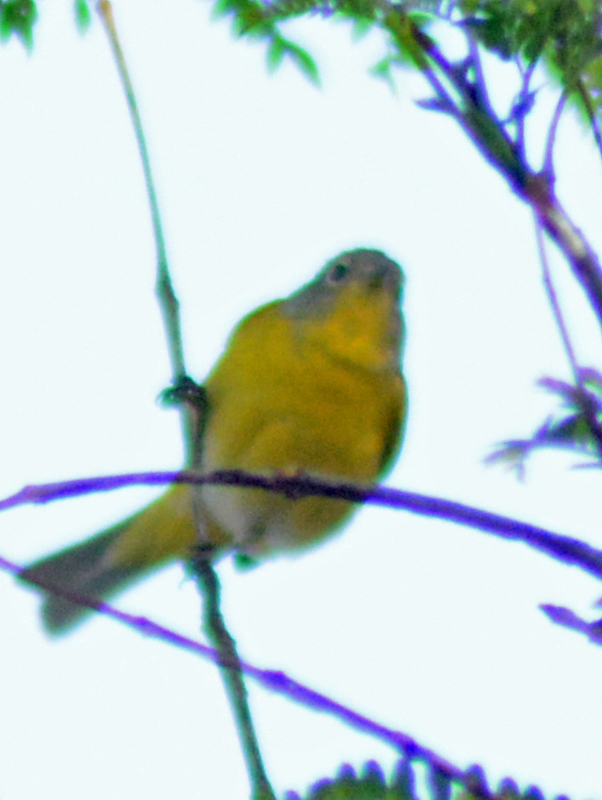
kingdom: Animalia
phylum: Chordata
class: Aves
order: Passeriformes
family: Parulidae
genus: Leiothlypis
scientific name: Leiothlypis ruficapilla
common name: Nashville warbler
